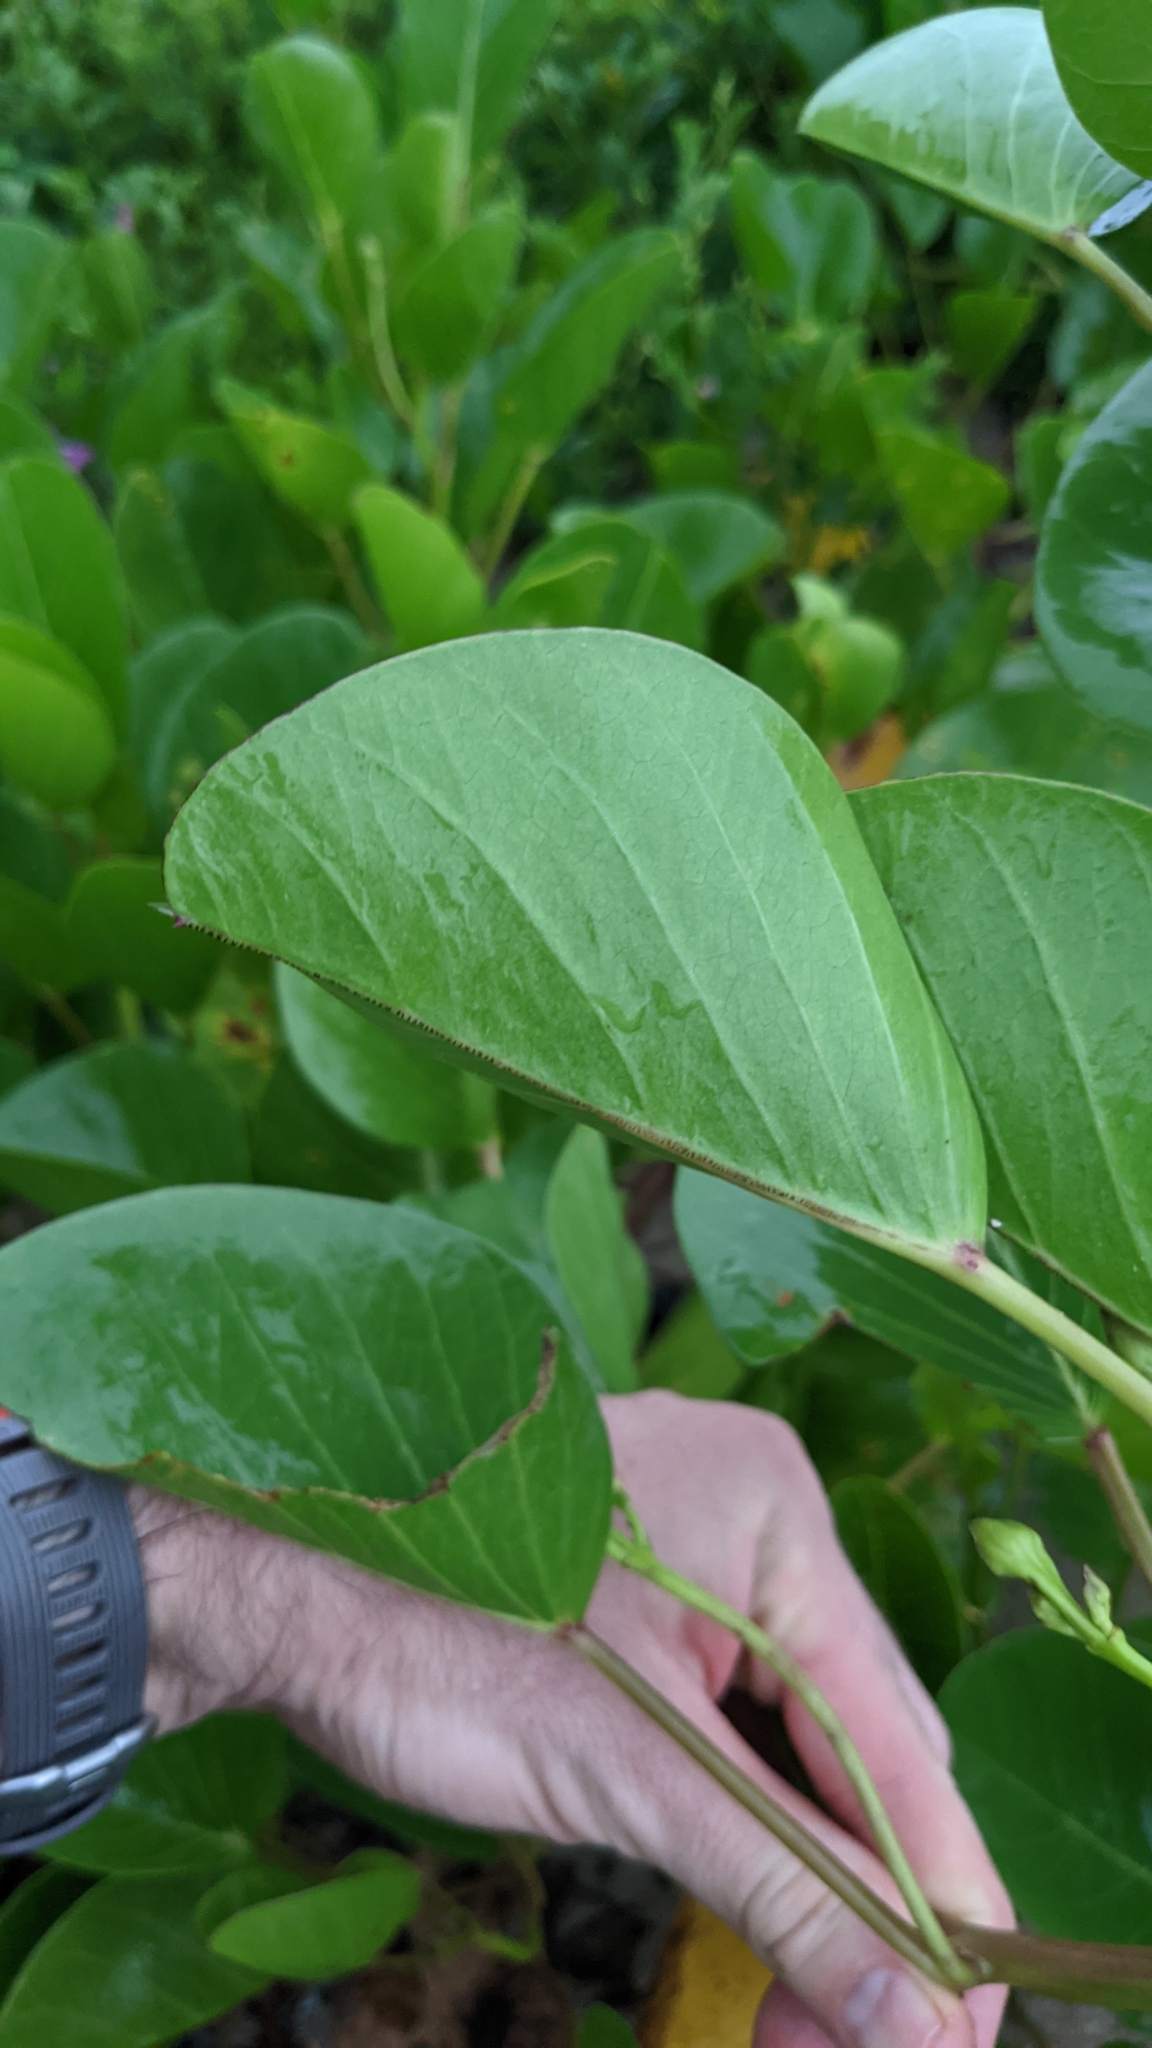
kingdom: Plantae
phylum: Tracheophyta
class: Magnoliopsida
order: Solanales
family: Convolvulaceae
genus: Ipomoea
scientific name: Ipomoea pes-caprae
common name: Beach morning glory
